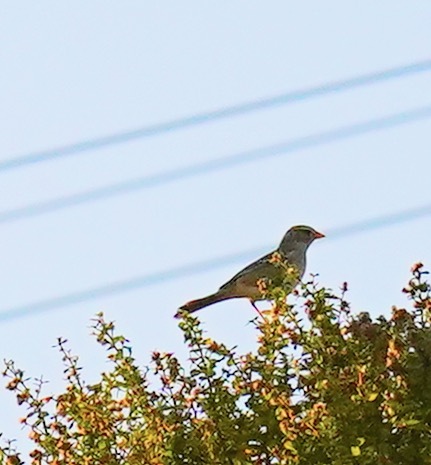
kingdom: Animalia
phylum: Chordata
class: Aves
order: Passeriformes
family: Passerellidae
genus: Zonotrichia
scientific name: Zonotrichia leucophrys
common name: White-crowned sparrow
